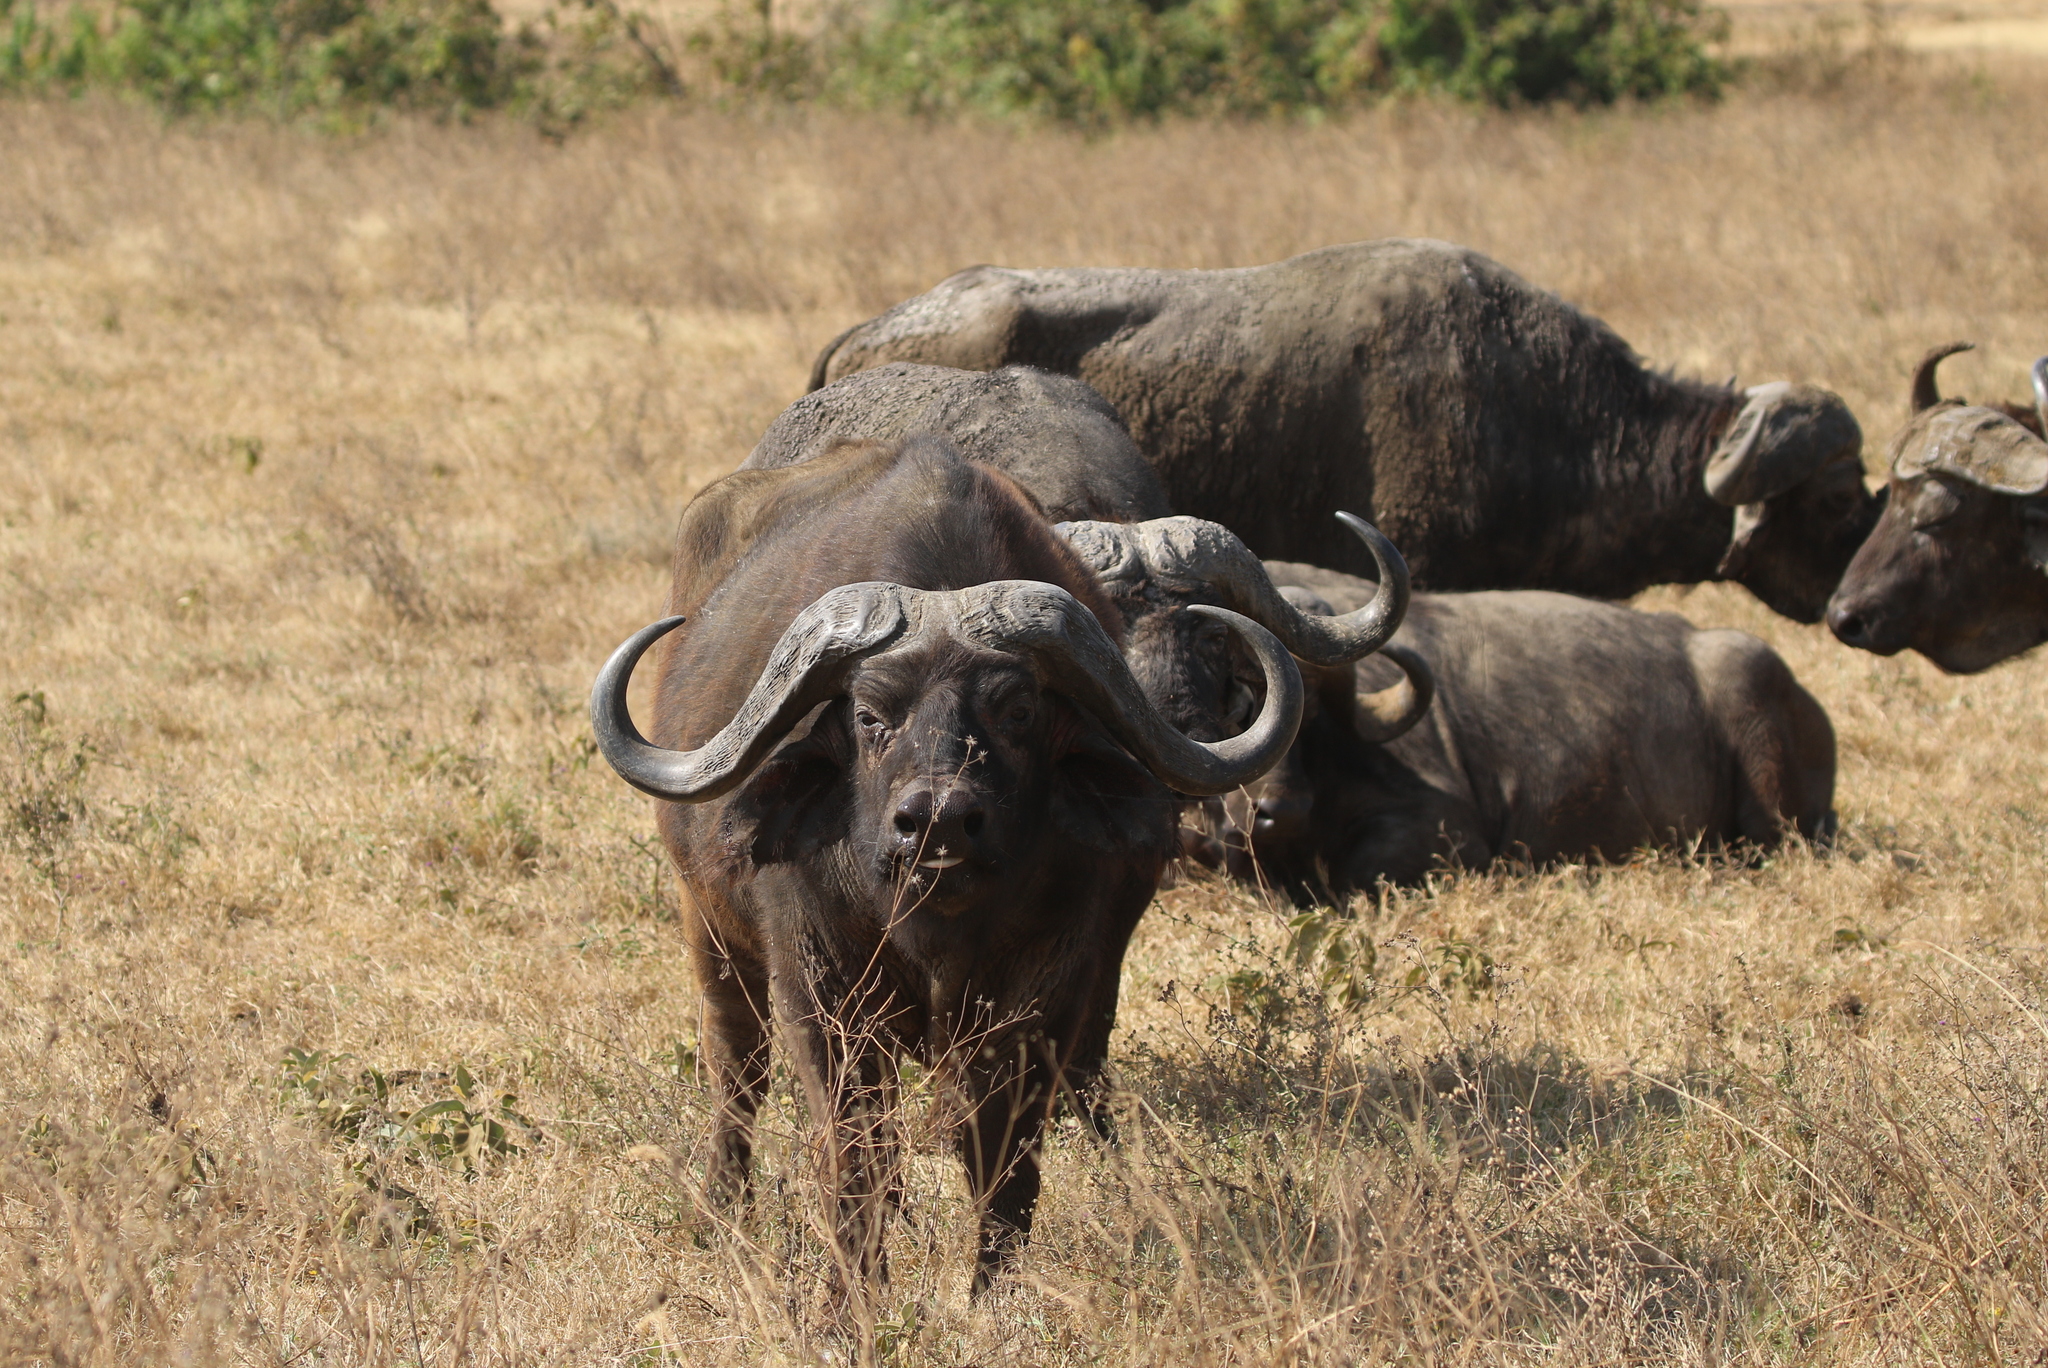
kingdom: Animalia
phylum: Chordata
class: Mammalia
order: Artiodactyla
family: Bovidae
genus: Syncerus
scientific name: Syncerus caffer
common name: African buffalo
